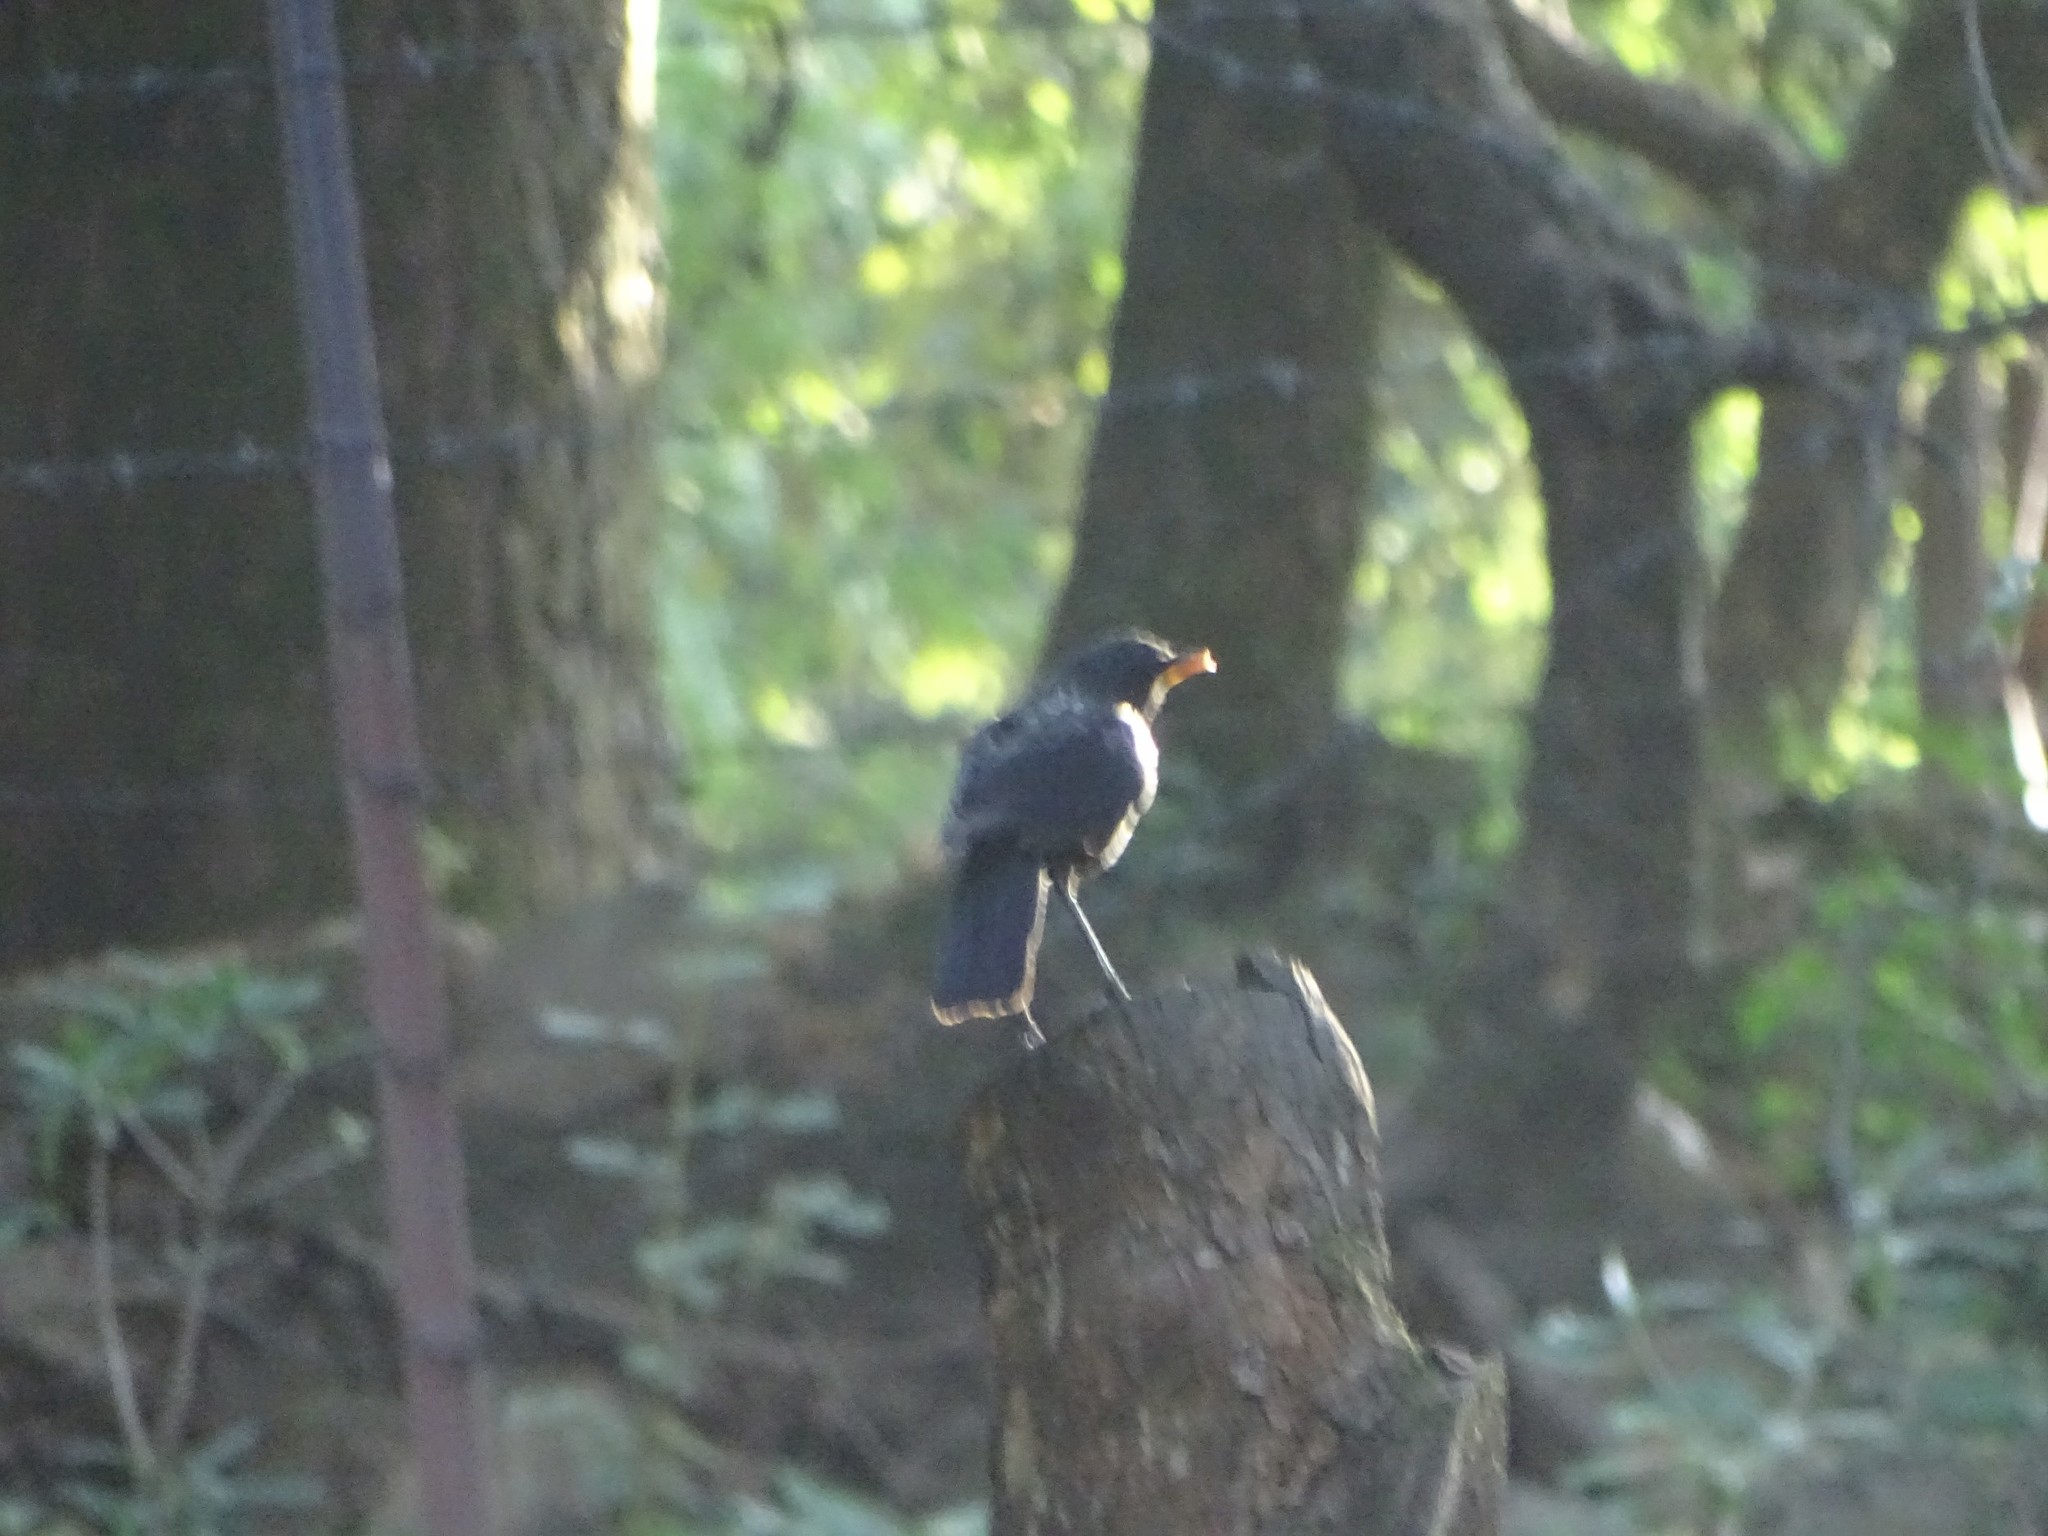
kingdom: Animalia
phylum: Chordata
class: Aves
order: Passeriformes
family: Muscicapidae
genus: Myophonus
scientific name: Myophonus caeruleus
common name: Blue whistling-thrush
